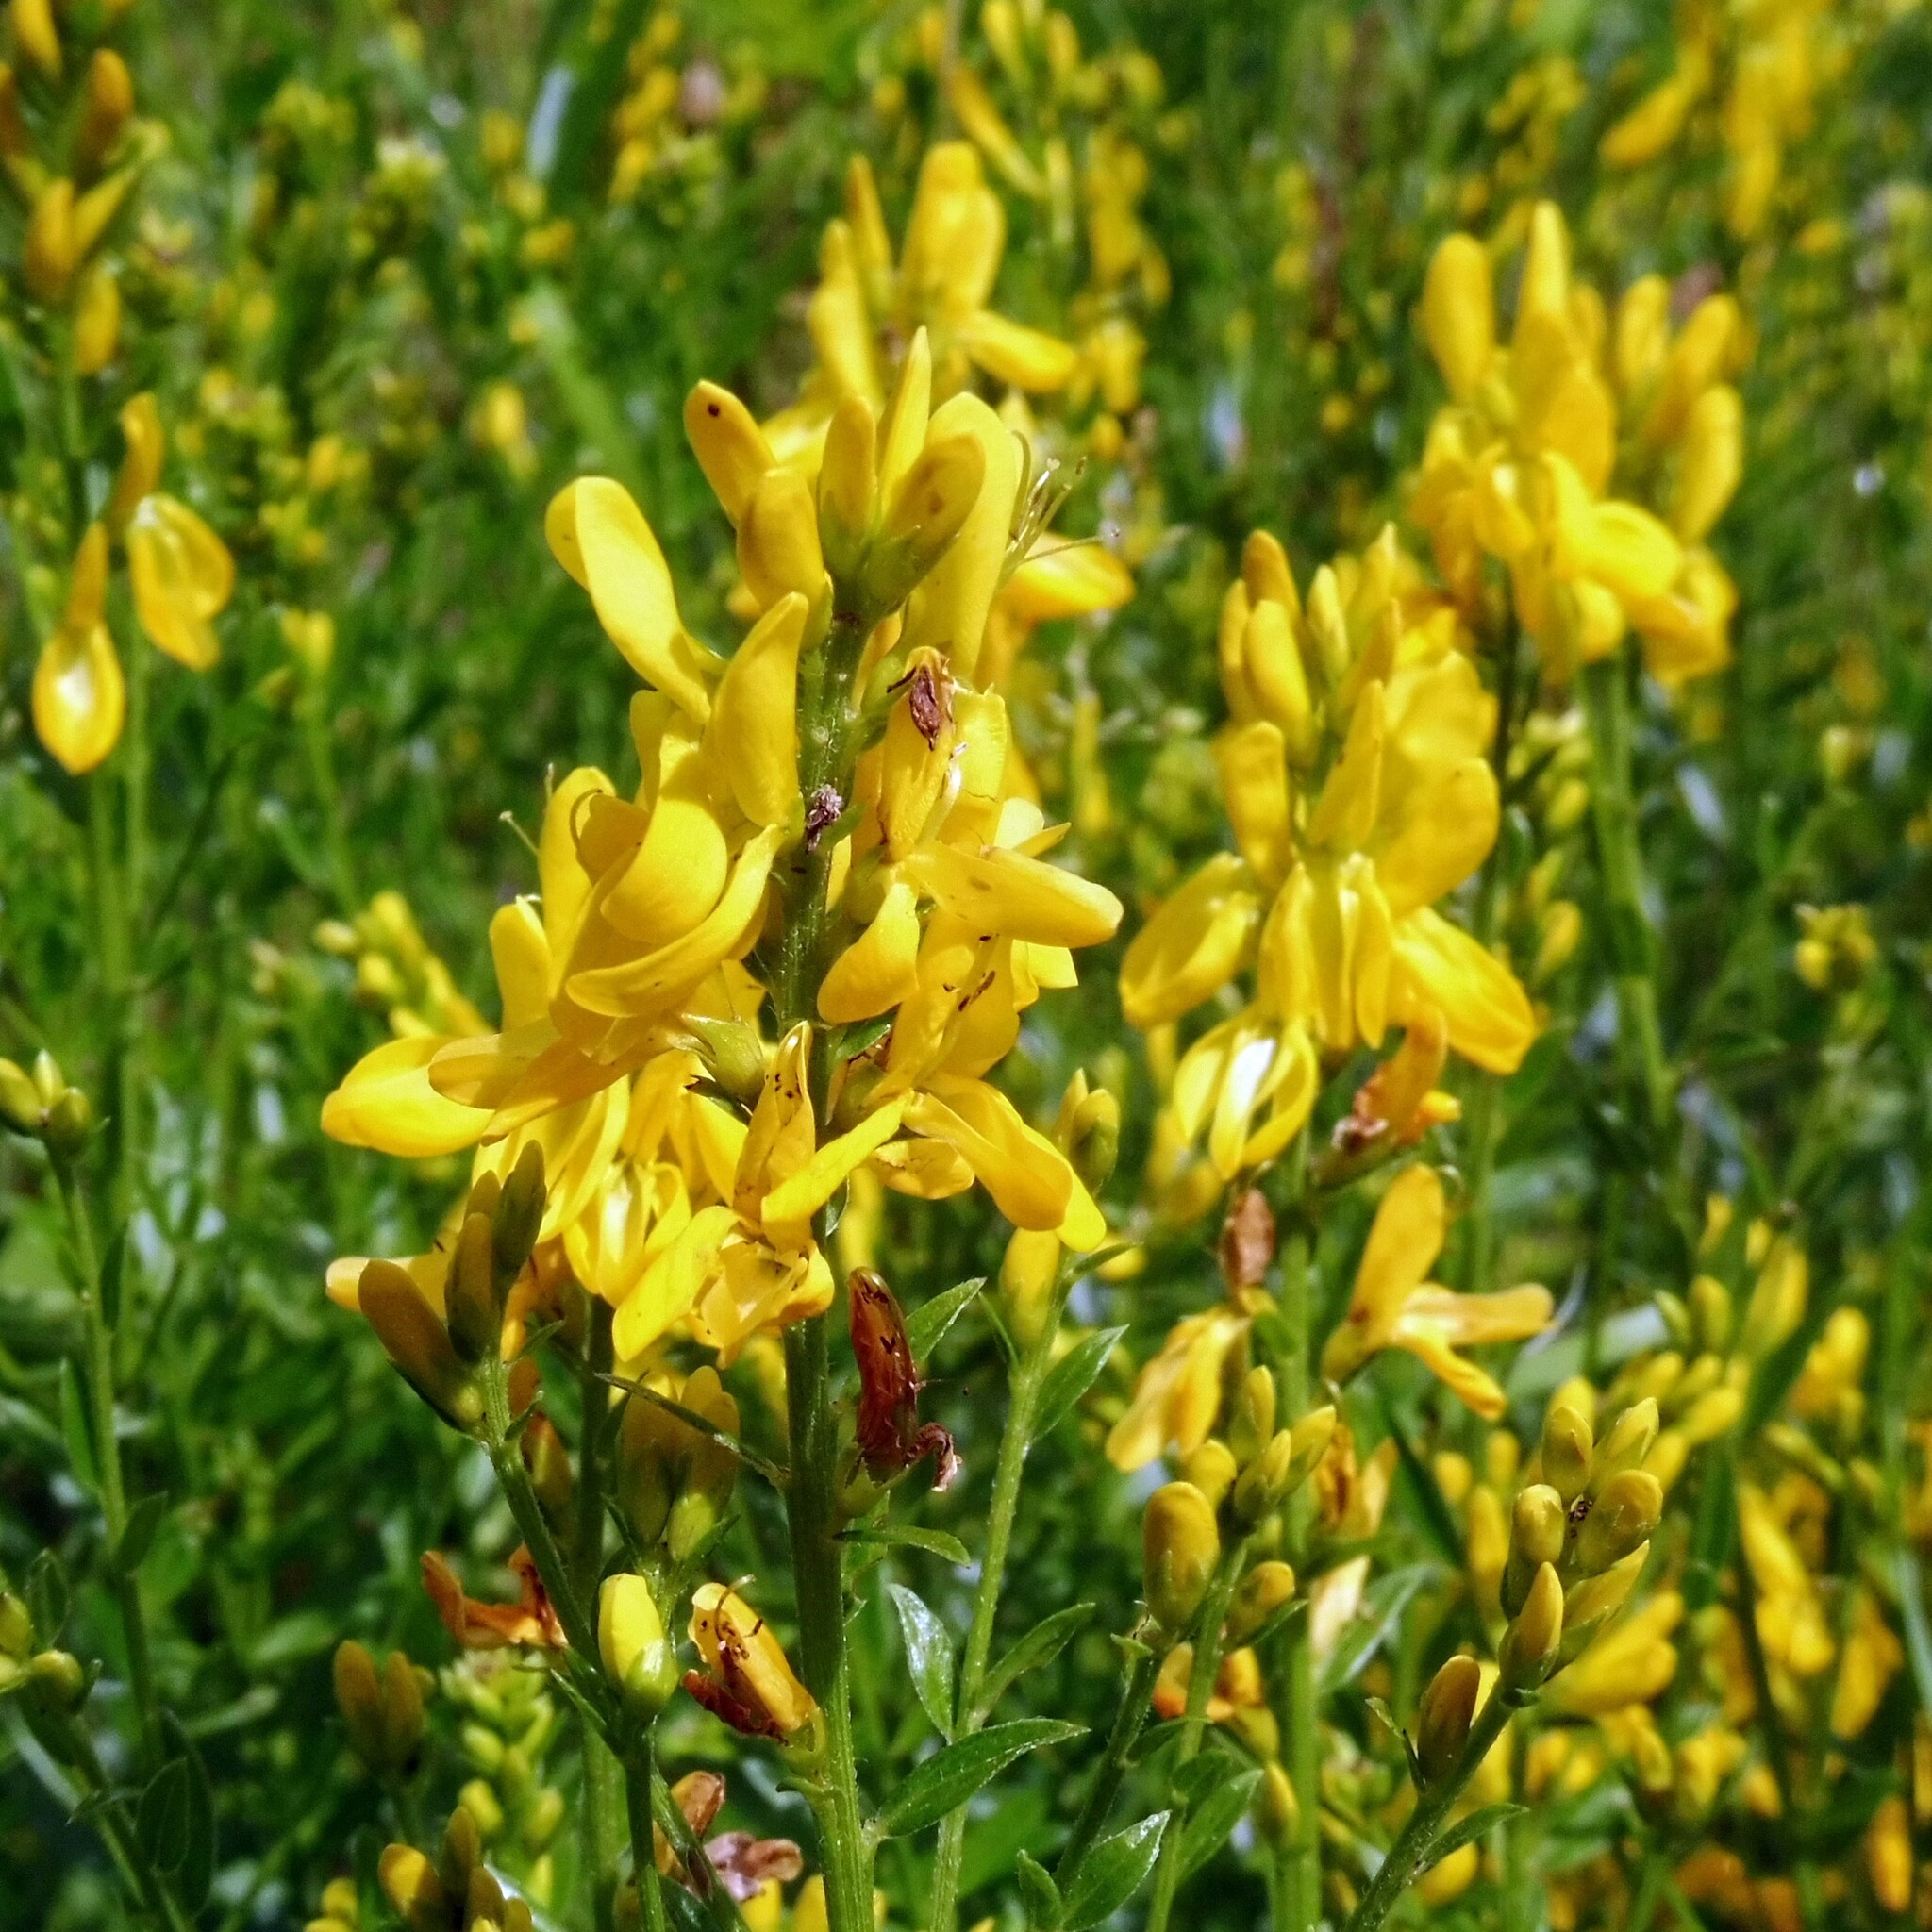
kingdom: Plantae
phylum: Tracheophyta
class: Magnoliopsida
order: Fabales
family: Fabaceae
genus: Genista
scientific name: Genista tinctoria
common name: Dyer's greenweed
